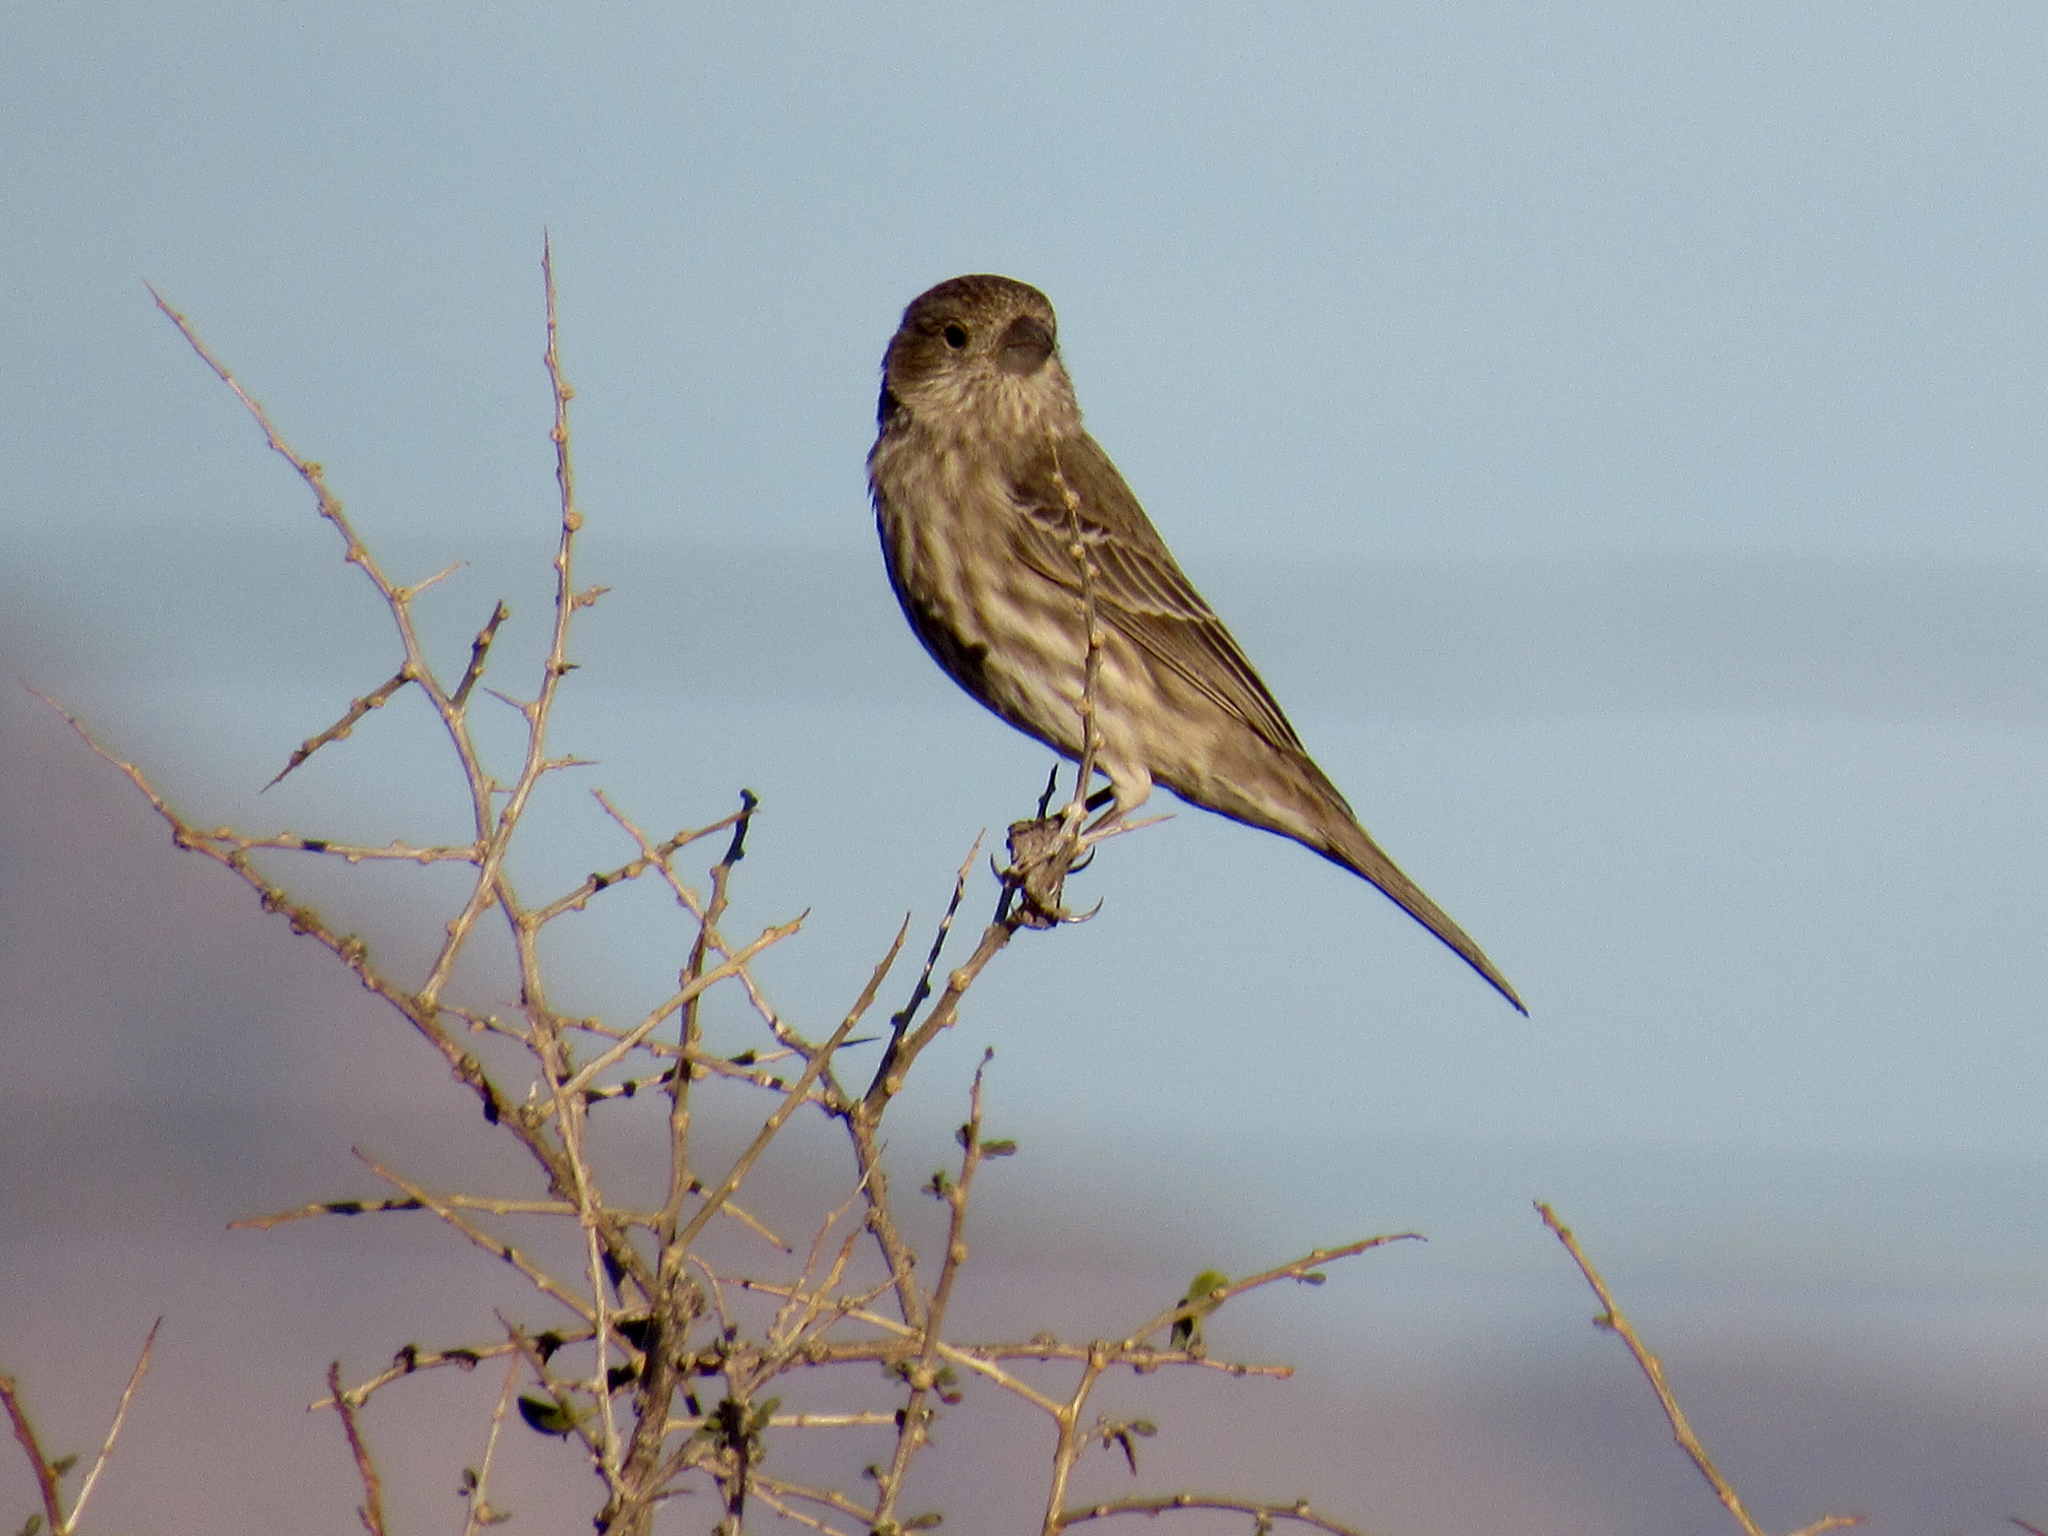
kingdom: Animalia
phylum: Chordata
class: Aves
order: Passeriformes
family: Fringillidae
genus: Haemorhous
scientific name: Haemorhous mexicanus
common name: House finch
